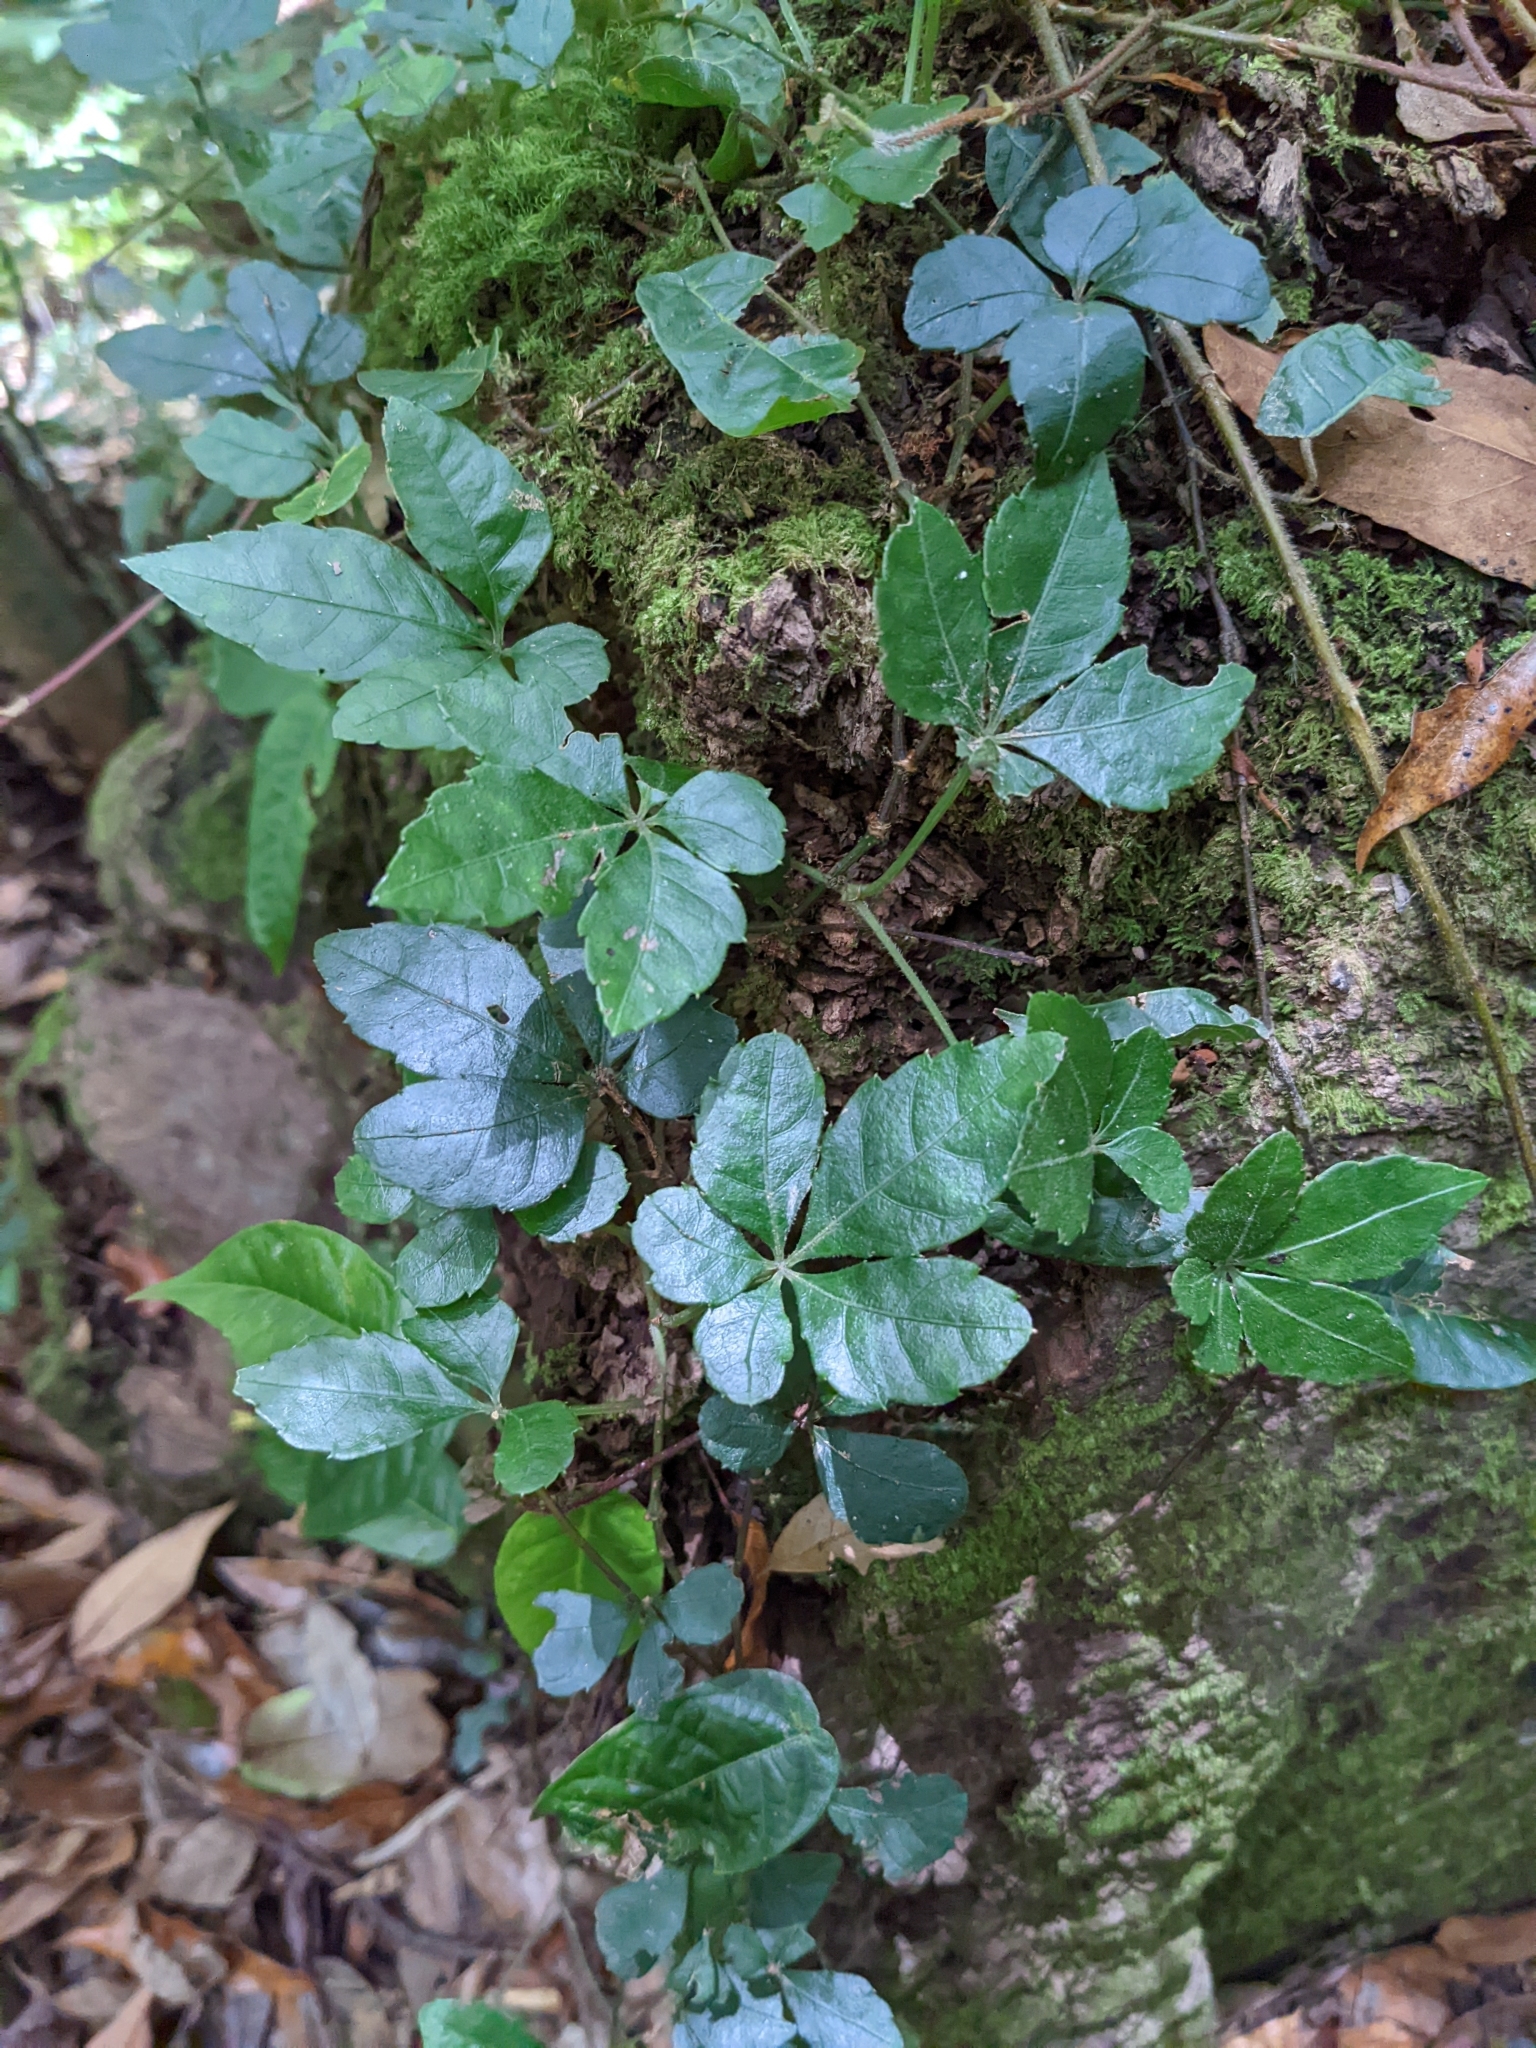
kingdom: Plantae
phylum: Tracheophyta
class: Magnoliopsida
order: Vitales
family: Vitaceae
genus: Tetrastigma
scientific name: Tetrastigma obtectum
